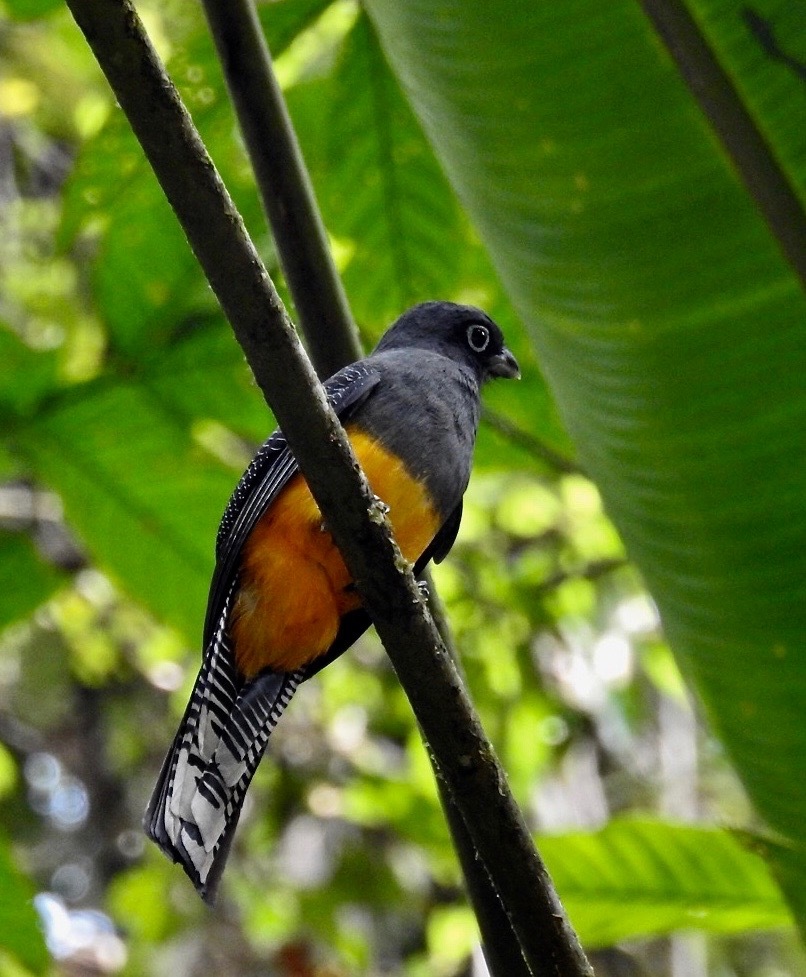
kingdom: Animalia
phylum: Chordata
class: Aves
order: Trogoniformes
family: Trogonidae
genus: Trogon
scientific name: Trogon caligatus
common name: Gartered trogon
